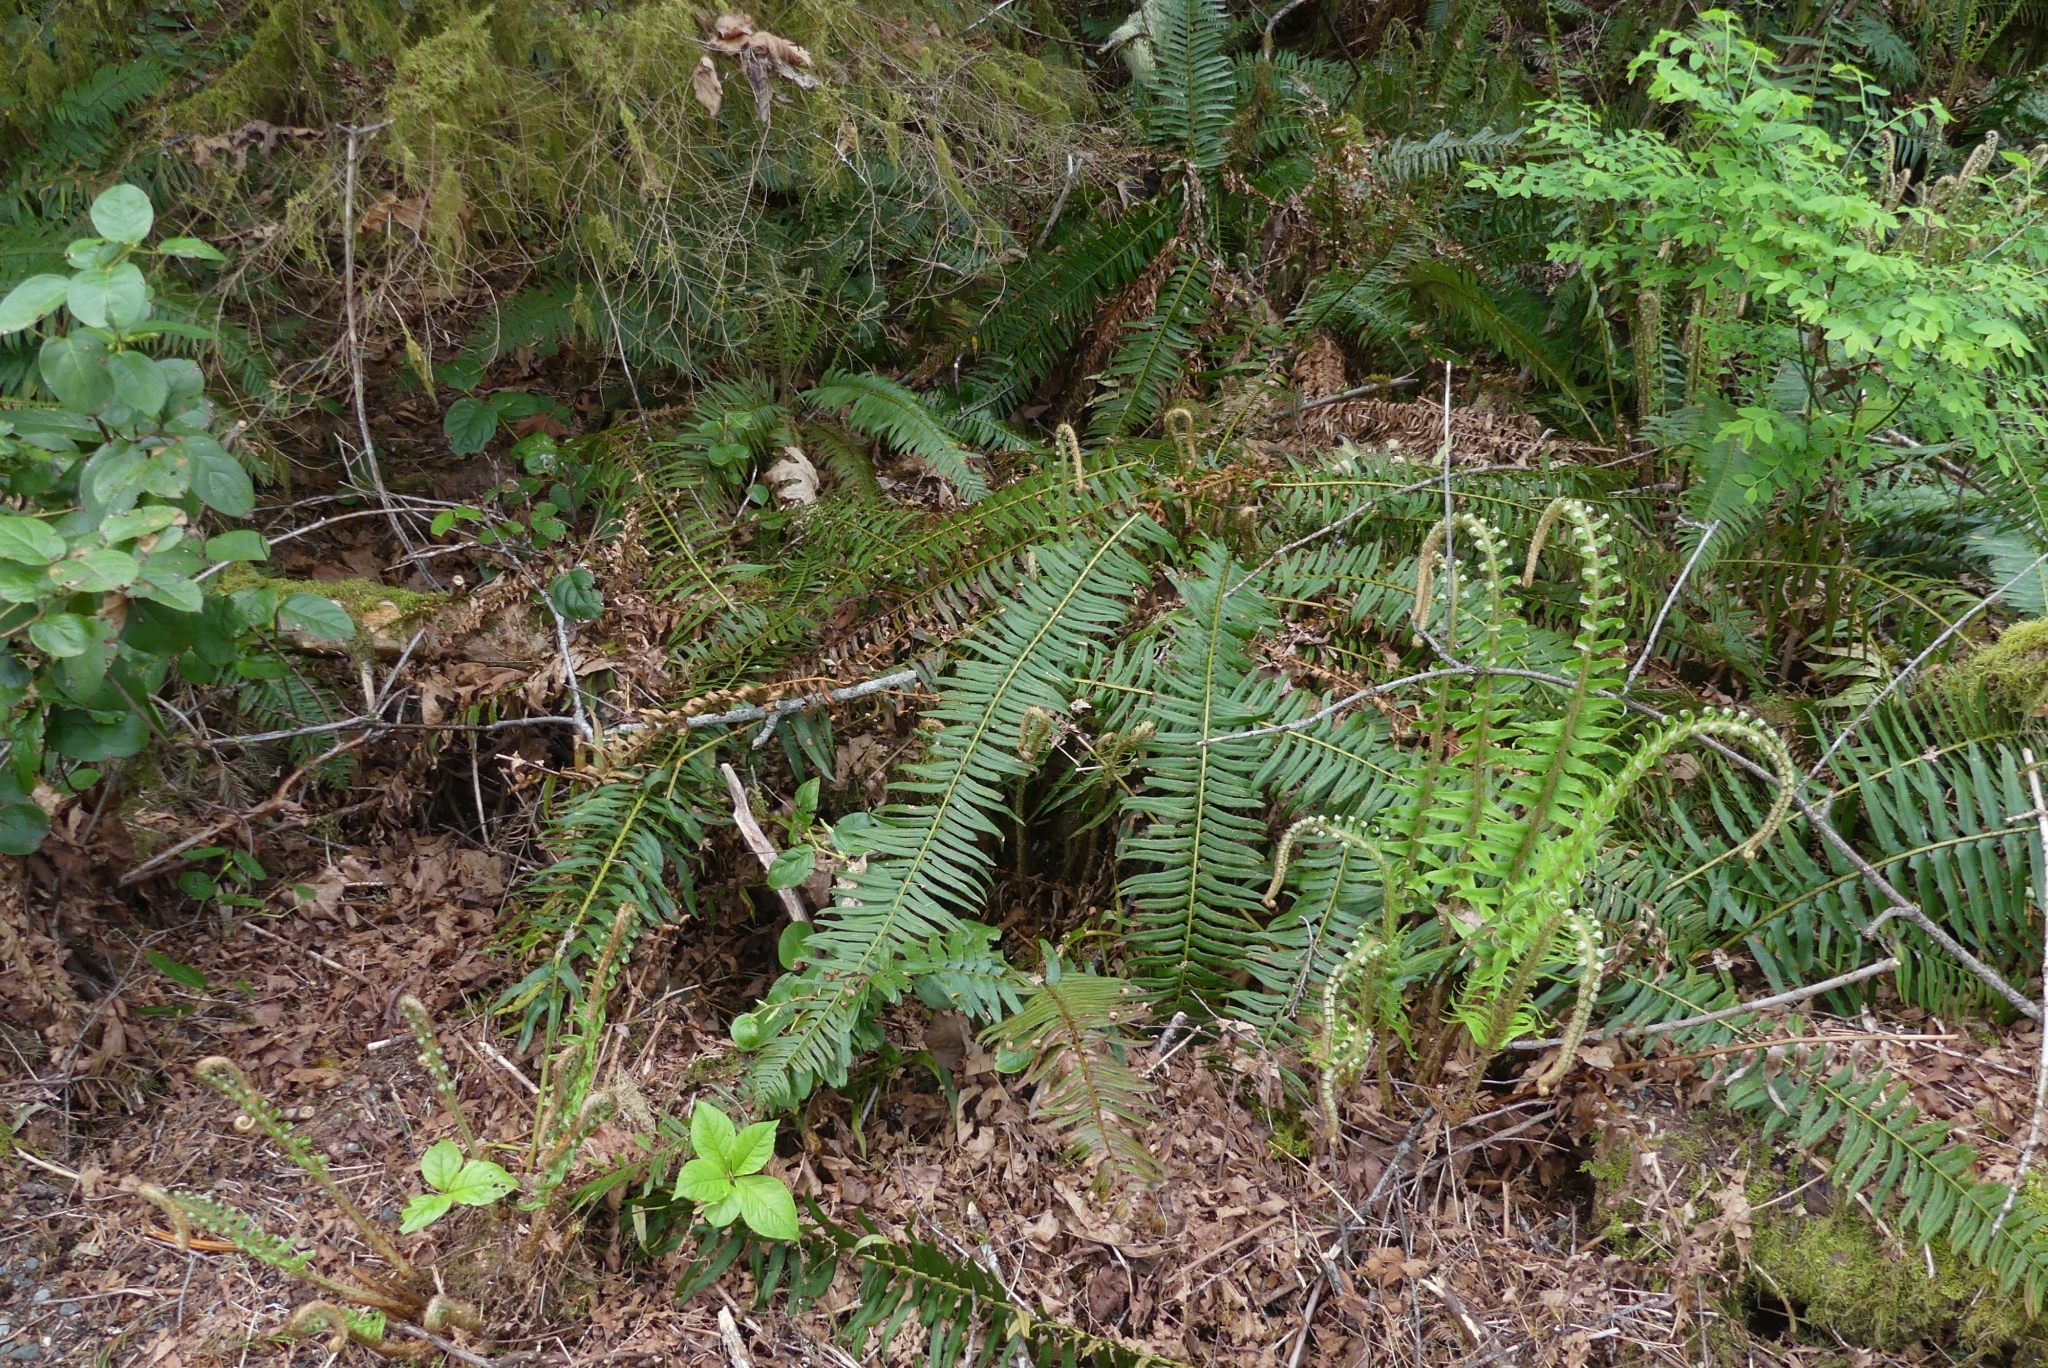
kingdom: Plantae
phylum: Tracheophyta
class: Polypodiopsida
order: Polypodiales
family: Dryopteridaceae
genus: Polystichum
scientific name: Polystichum munitum
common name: Western sword-fern
